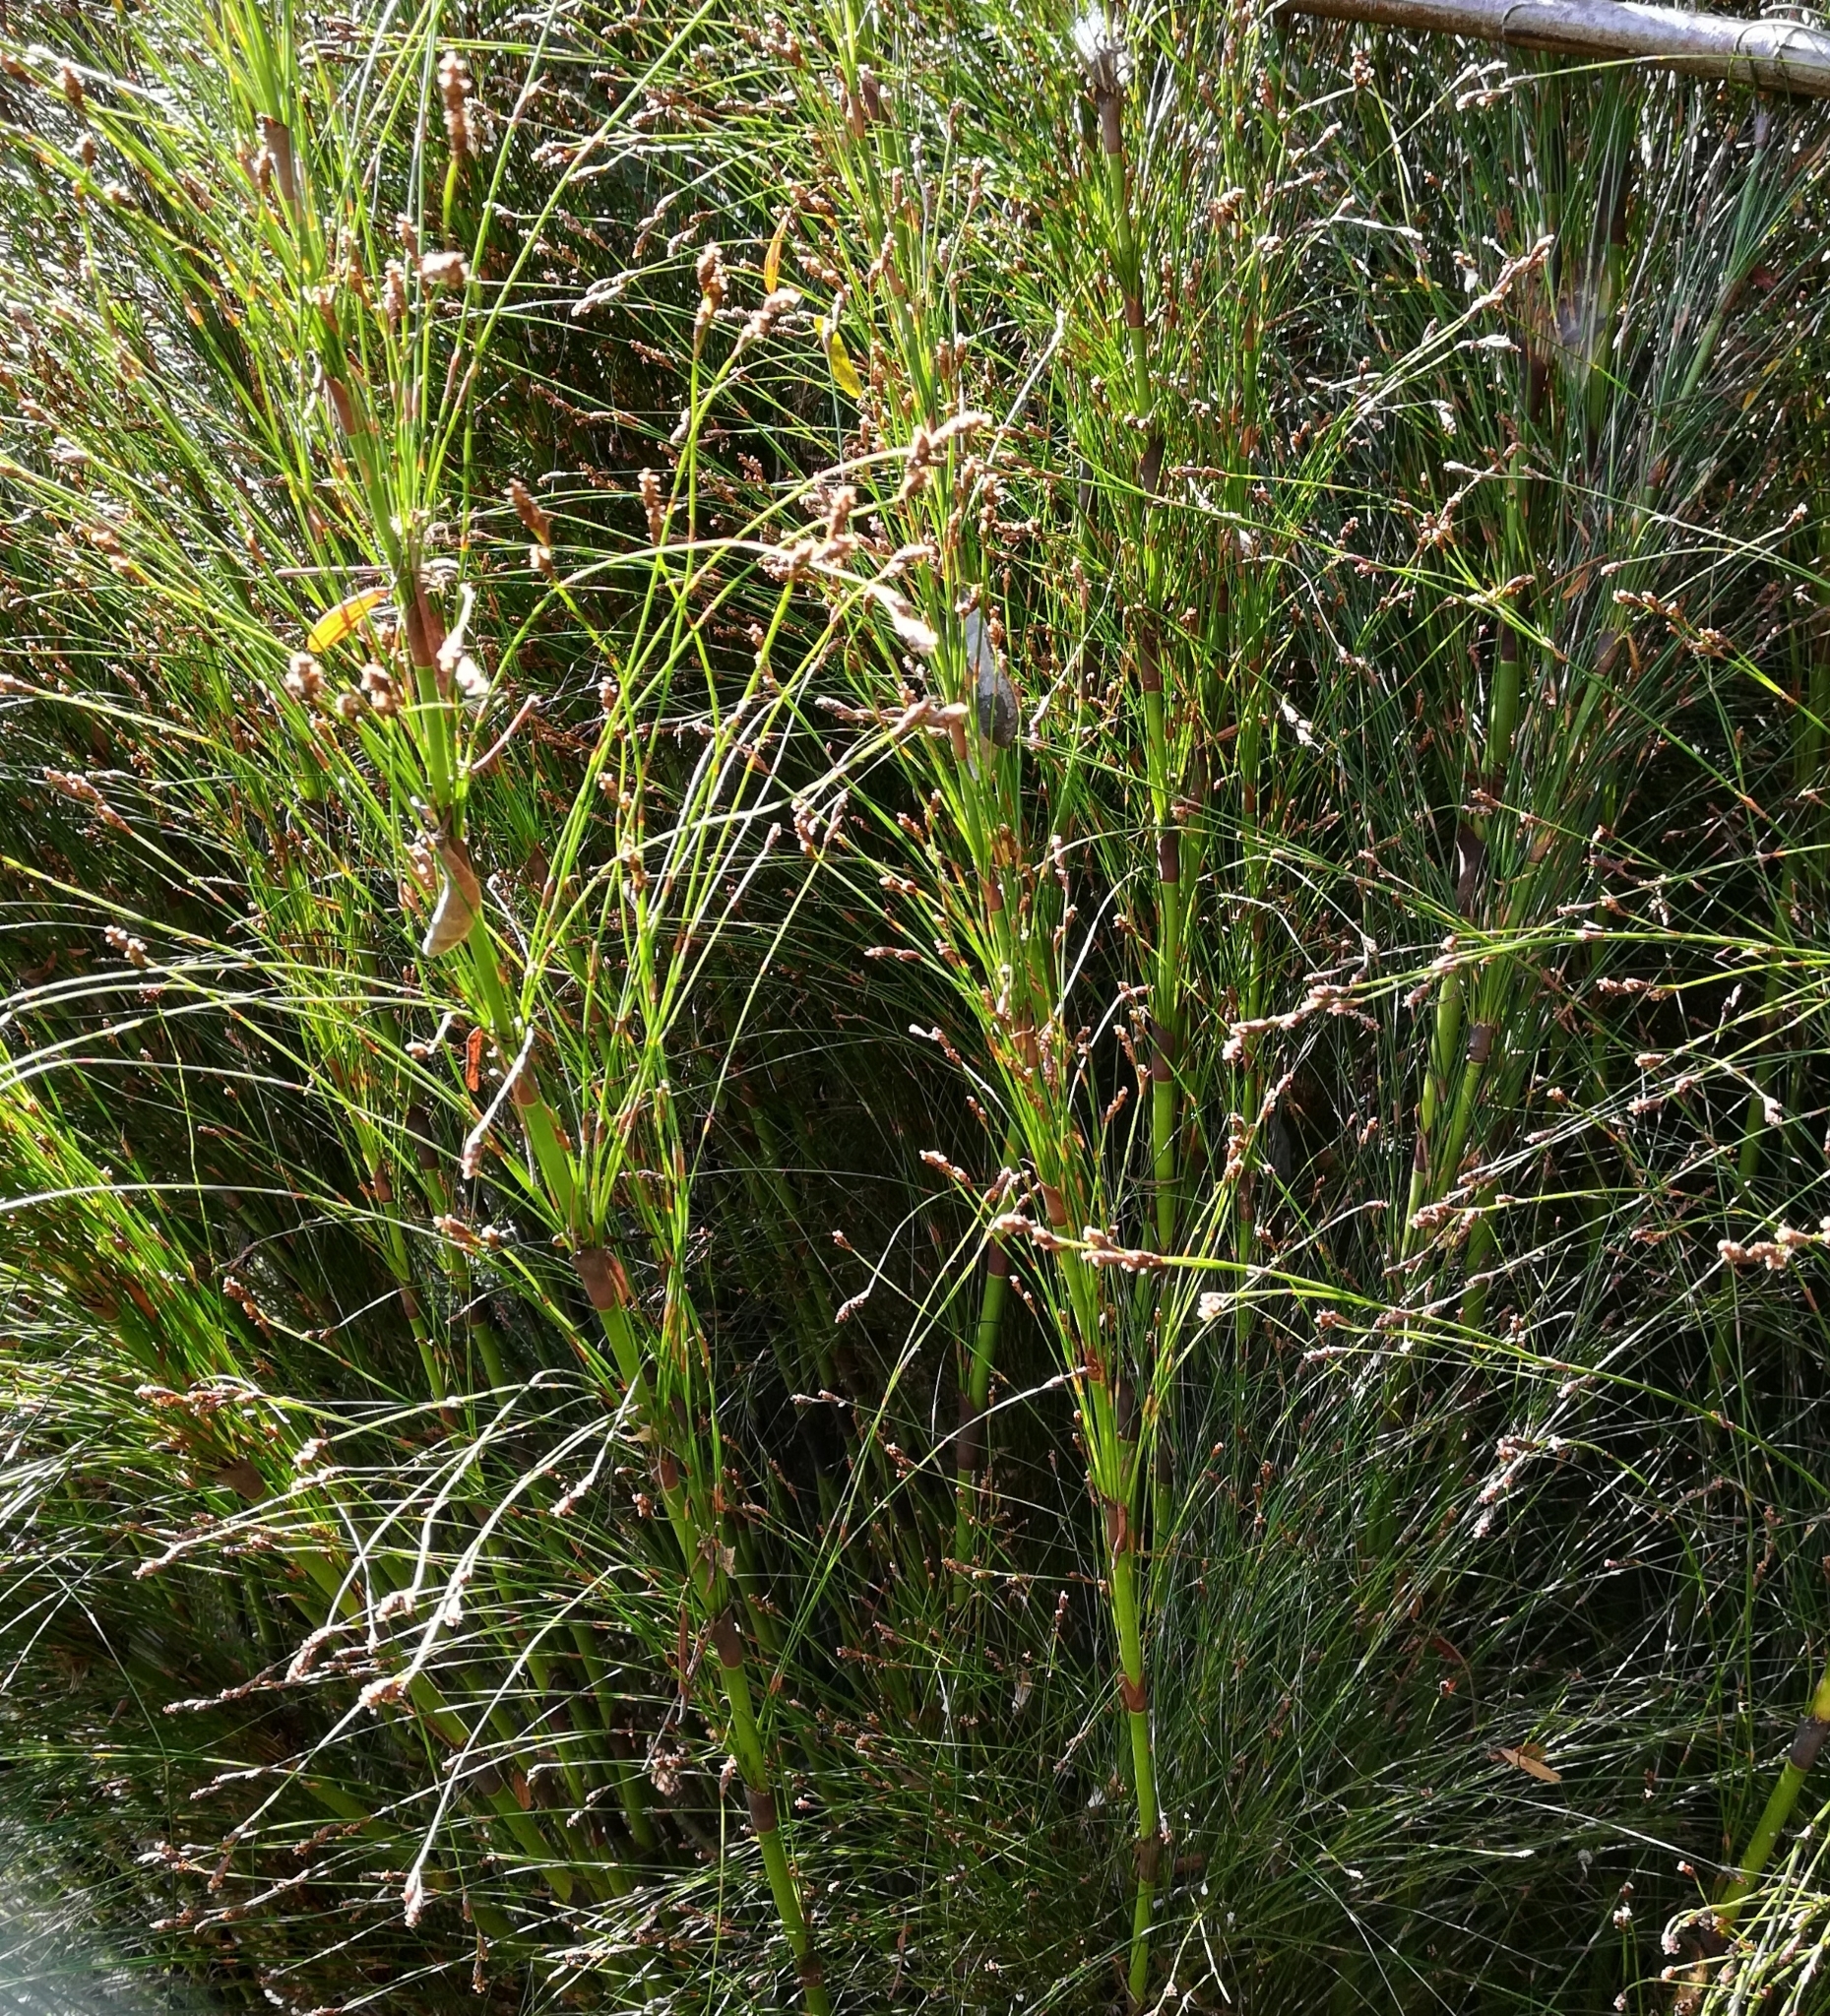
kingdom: Plantae
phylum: Tracheophyta
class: Liliopsida
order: Poales
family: Restionaceae
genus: Restio
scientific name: Restio paniculatus
